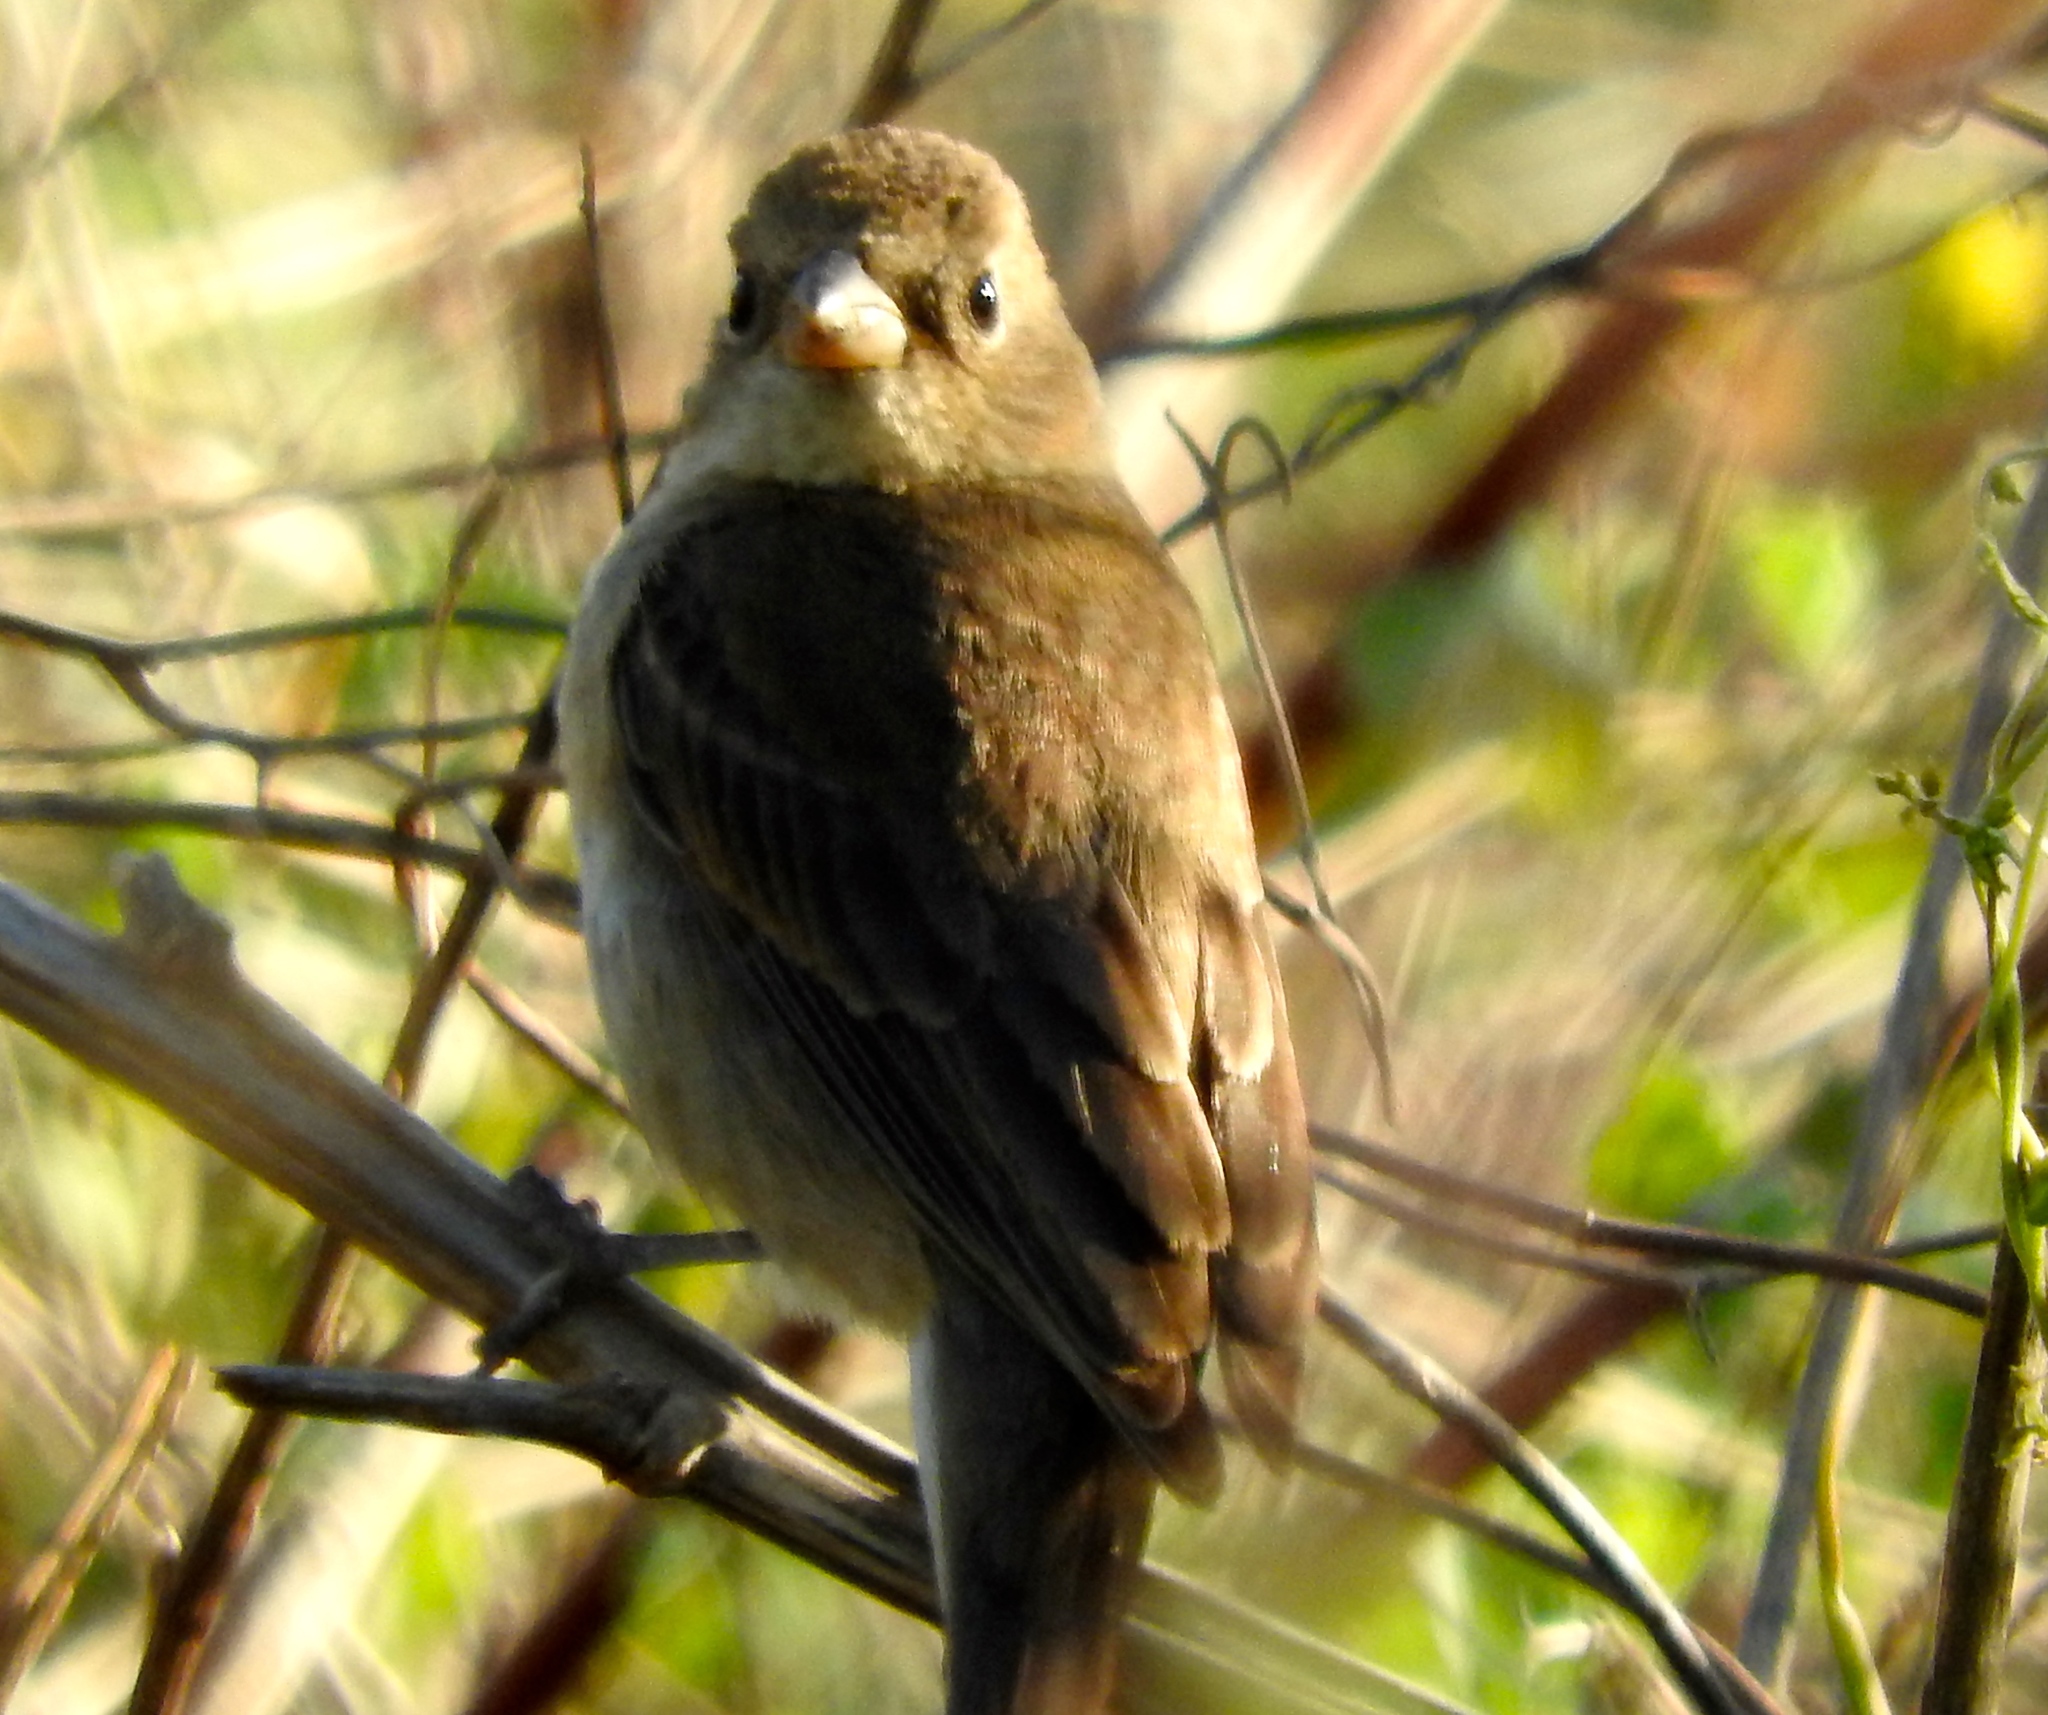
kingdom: Animalia
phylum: Chordata
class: Aves
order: Passeriformes
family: Cardinalidae
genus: Passerina
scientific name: Passerina
